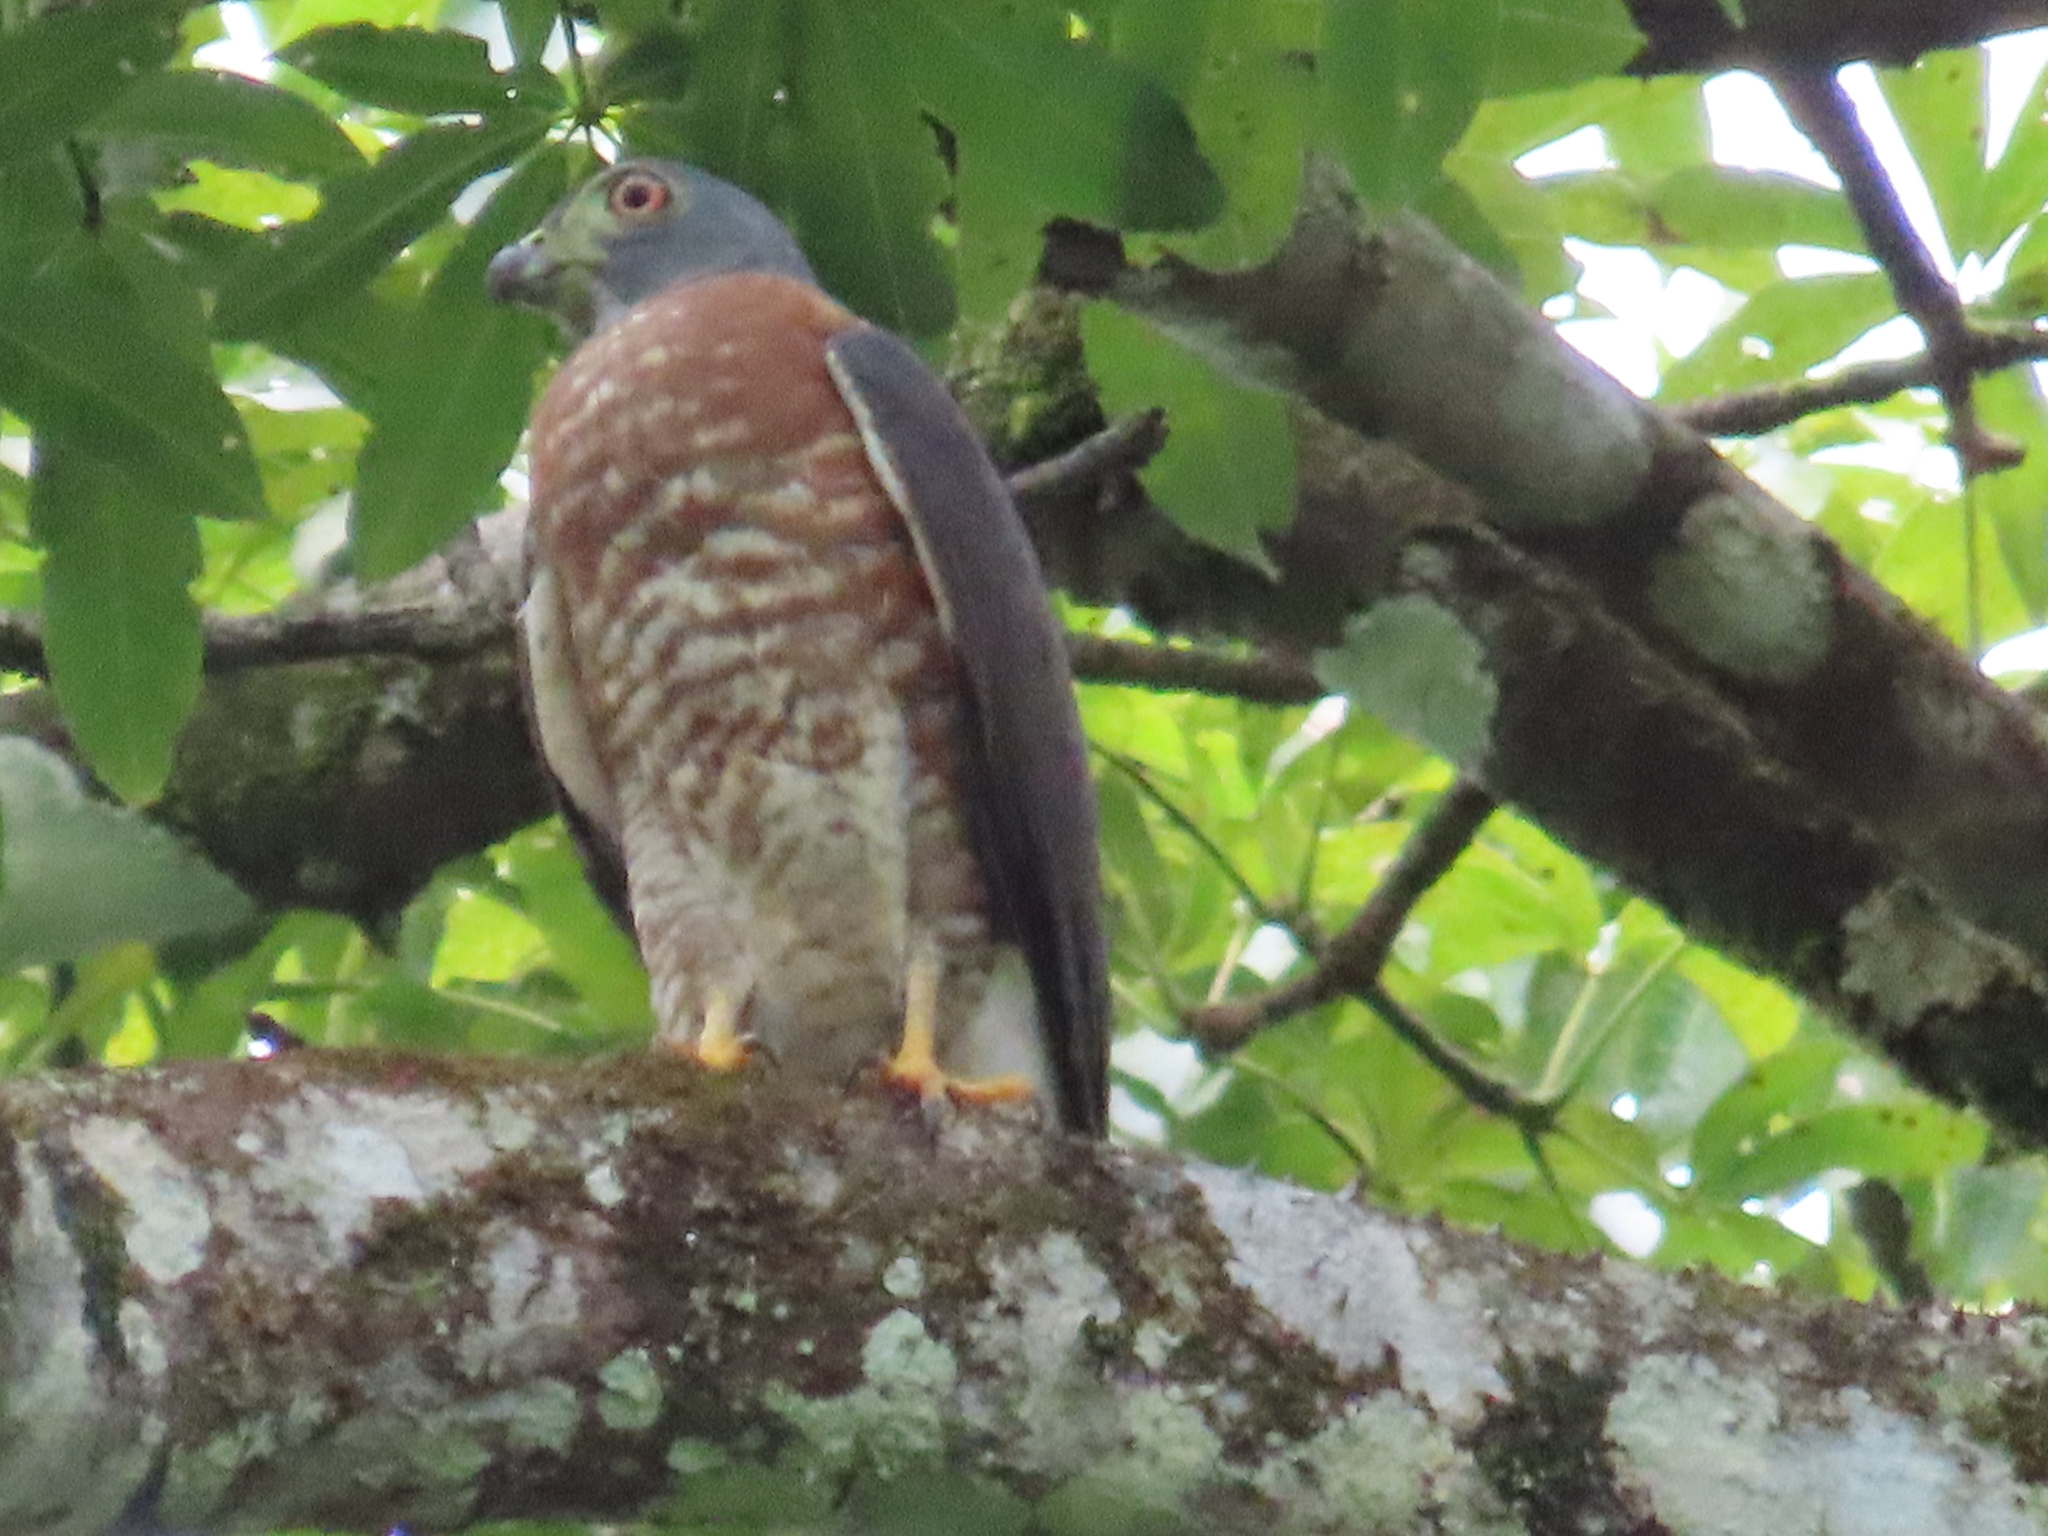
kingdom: Animalia
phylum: Chordata
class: Aves
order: Accipitriformes
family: Accipitridae
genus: Harpagus
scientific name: Harpagus bidentatus
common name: Double-toothed kite
